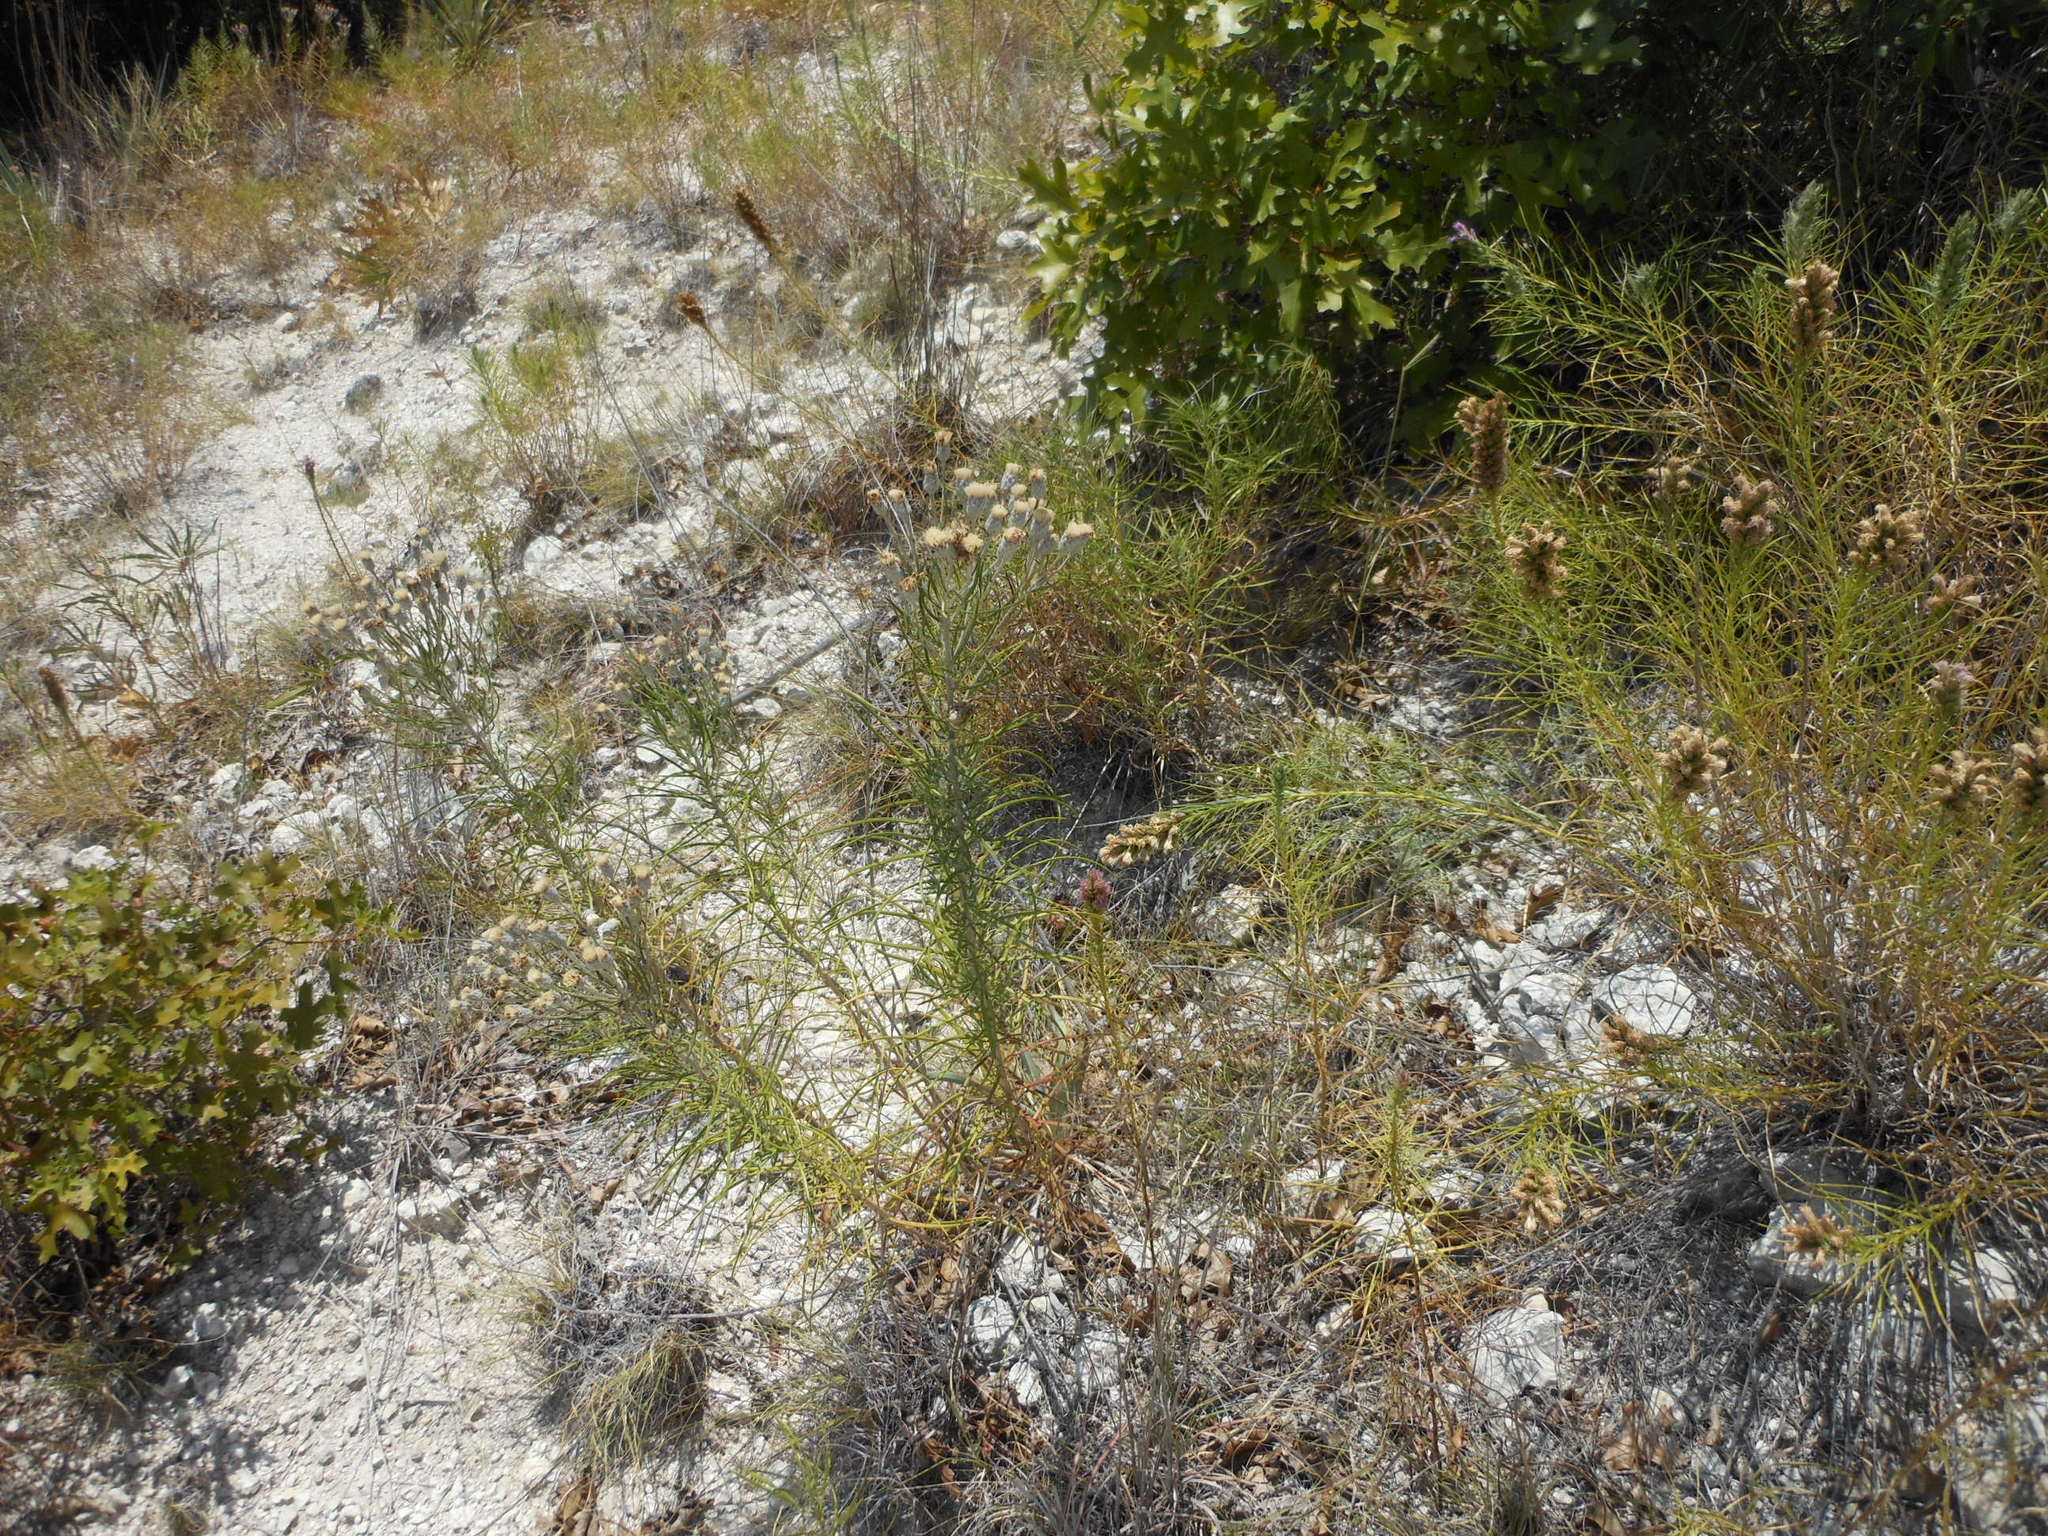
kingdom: Plantae
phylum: Tracheophyta
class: Magnoliopsida
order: Asterales
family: Asteraceae
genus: Vernonia
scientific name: Vernonia lindheimeri
